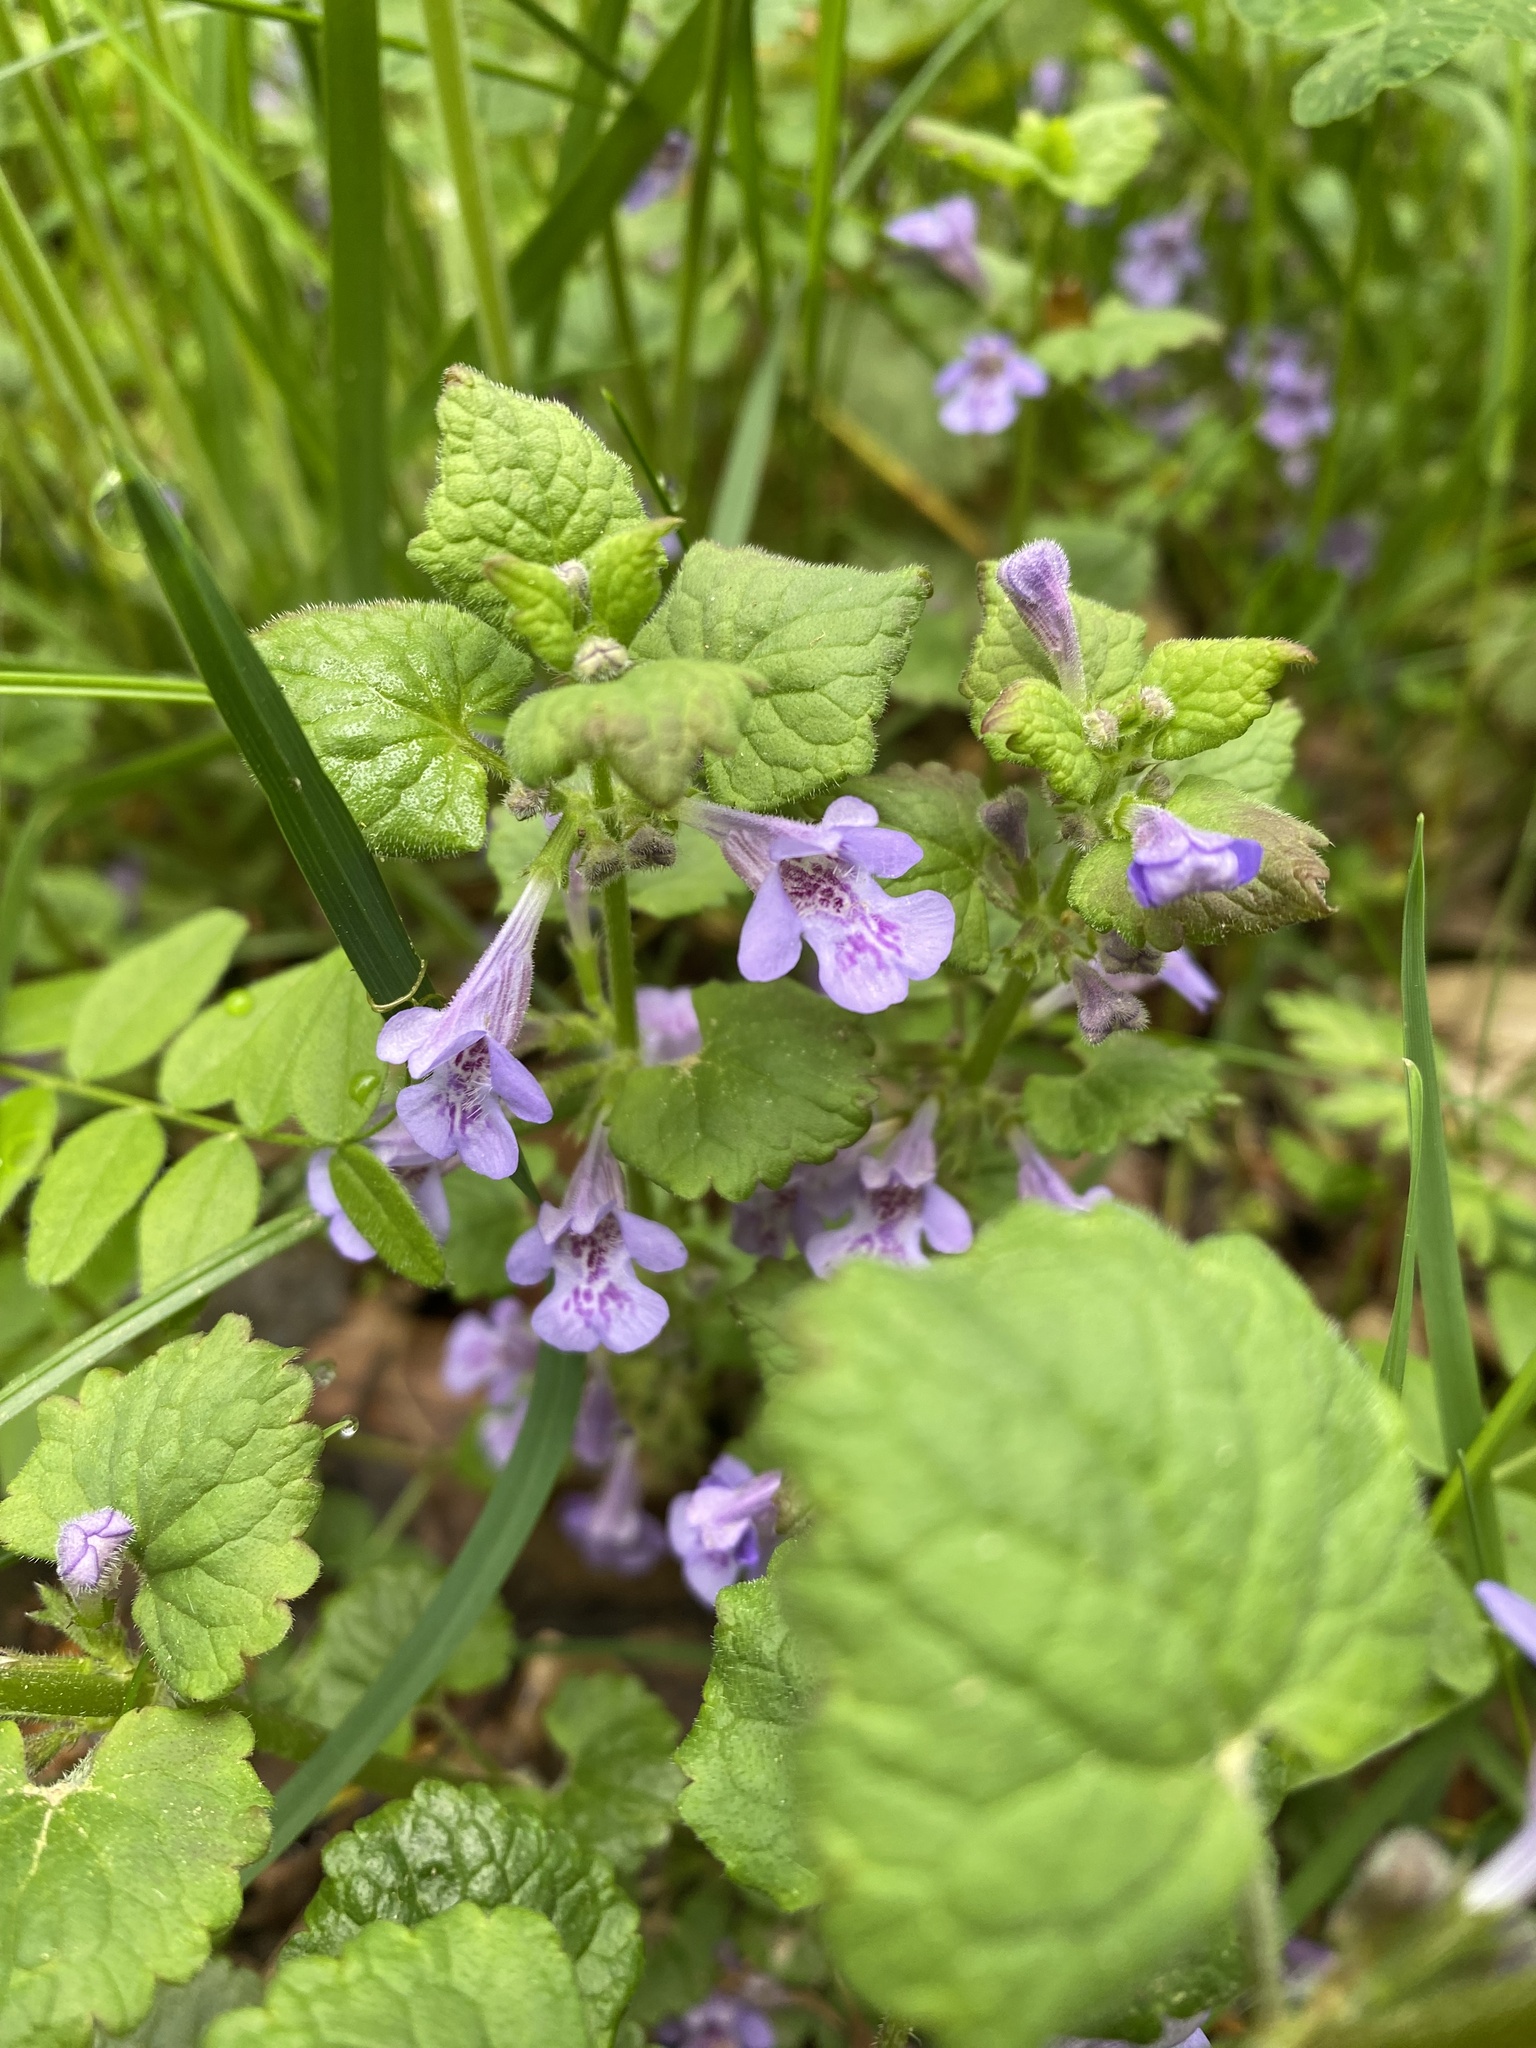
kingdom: Plantae
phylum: Tracheophyta
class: Magnoliopsida
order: Lamiales
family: Lamiaceae
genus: Glechoma
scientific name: Glechoma hederacea
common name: Ground ivy
